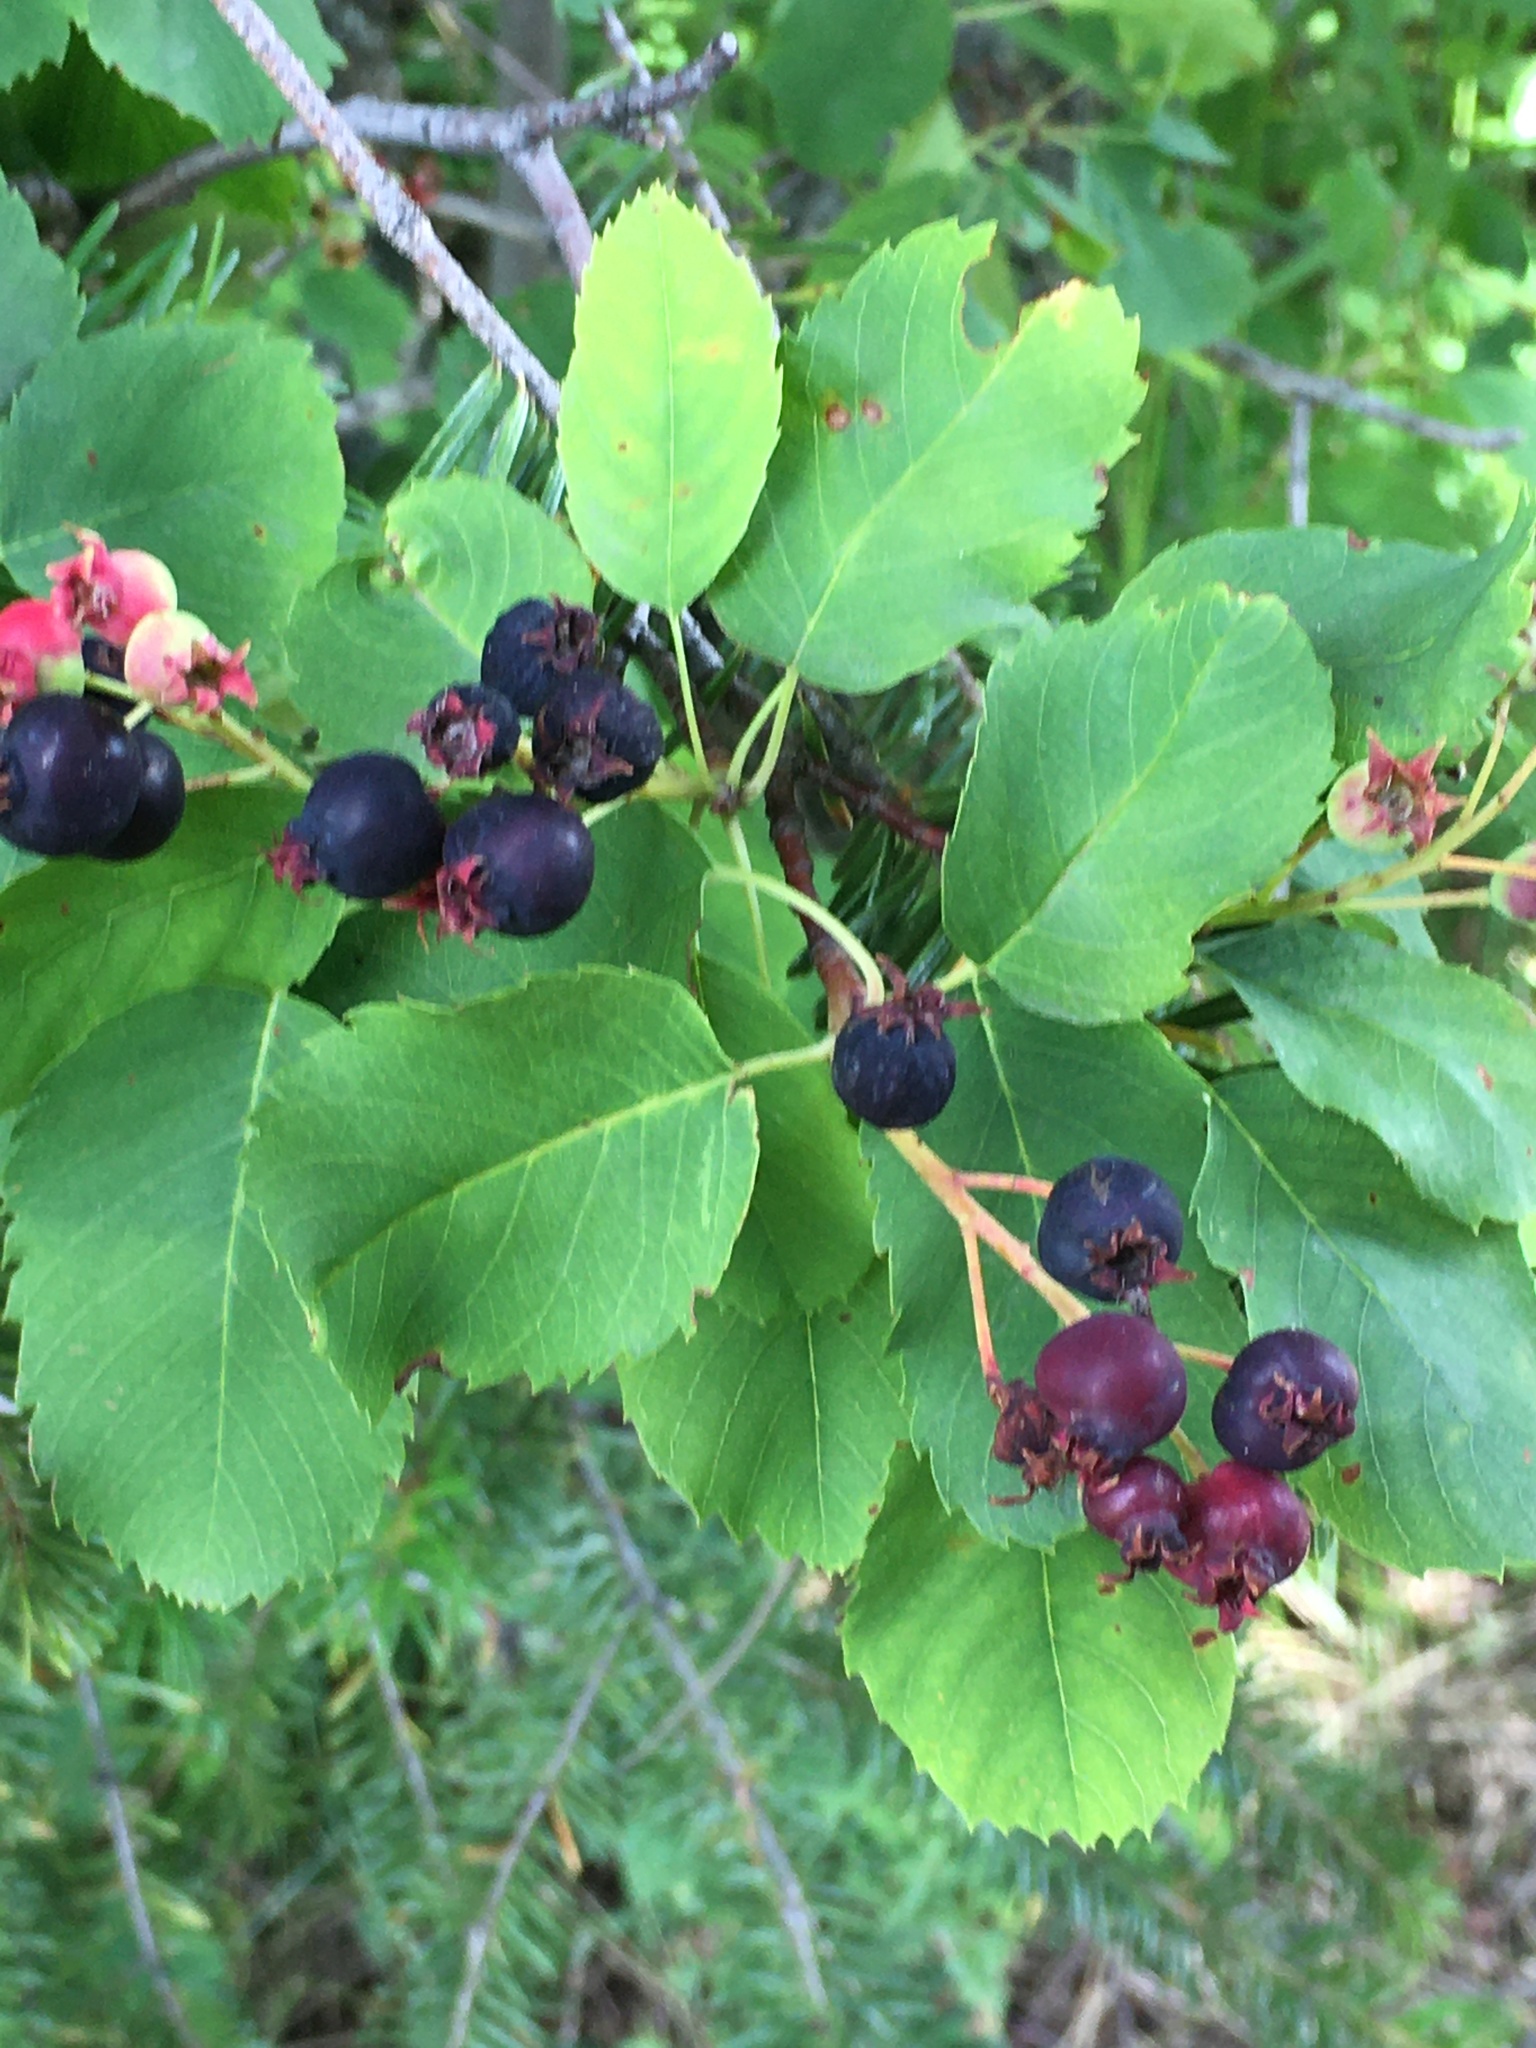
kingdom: Plantae
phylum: Tracheophyta
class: Magnoliopsida
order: Rosales
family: Rosaceae
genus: Amelanchier
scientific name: Amelanchier alnifolia
